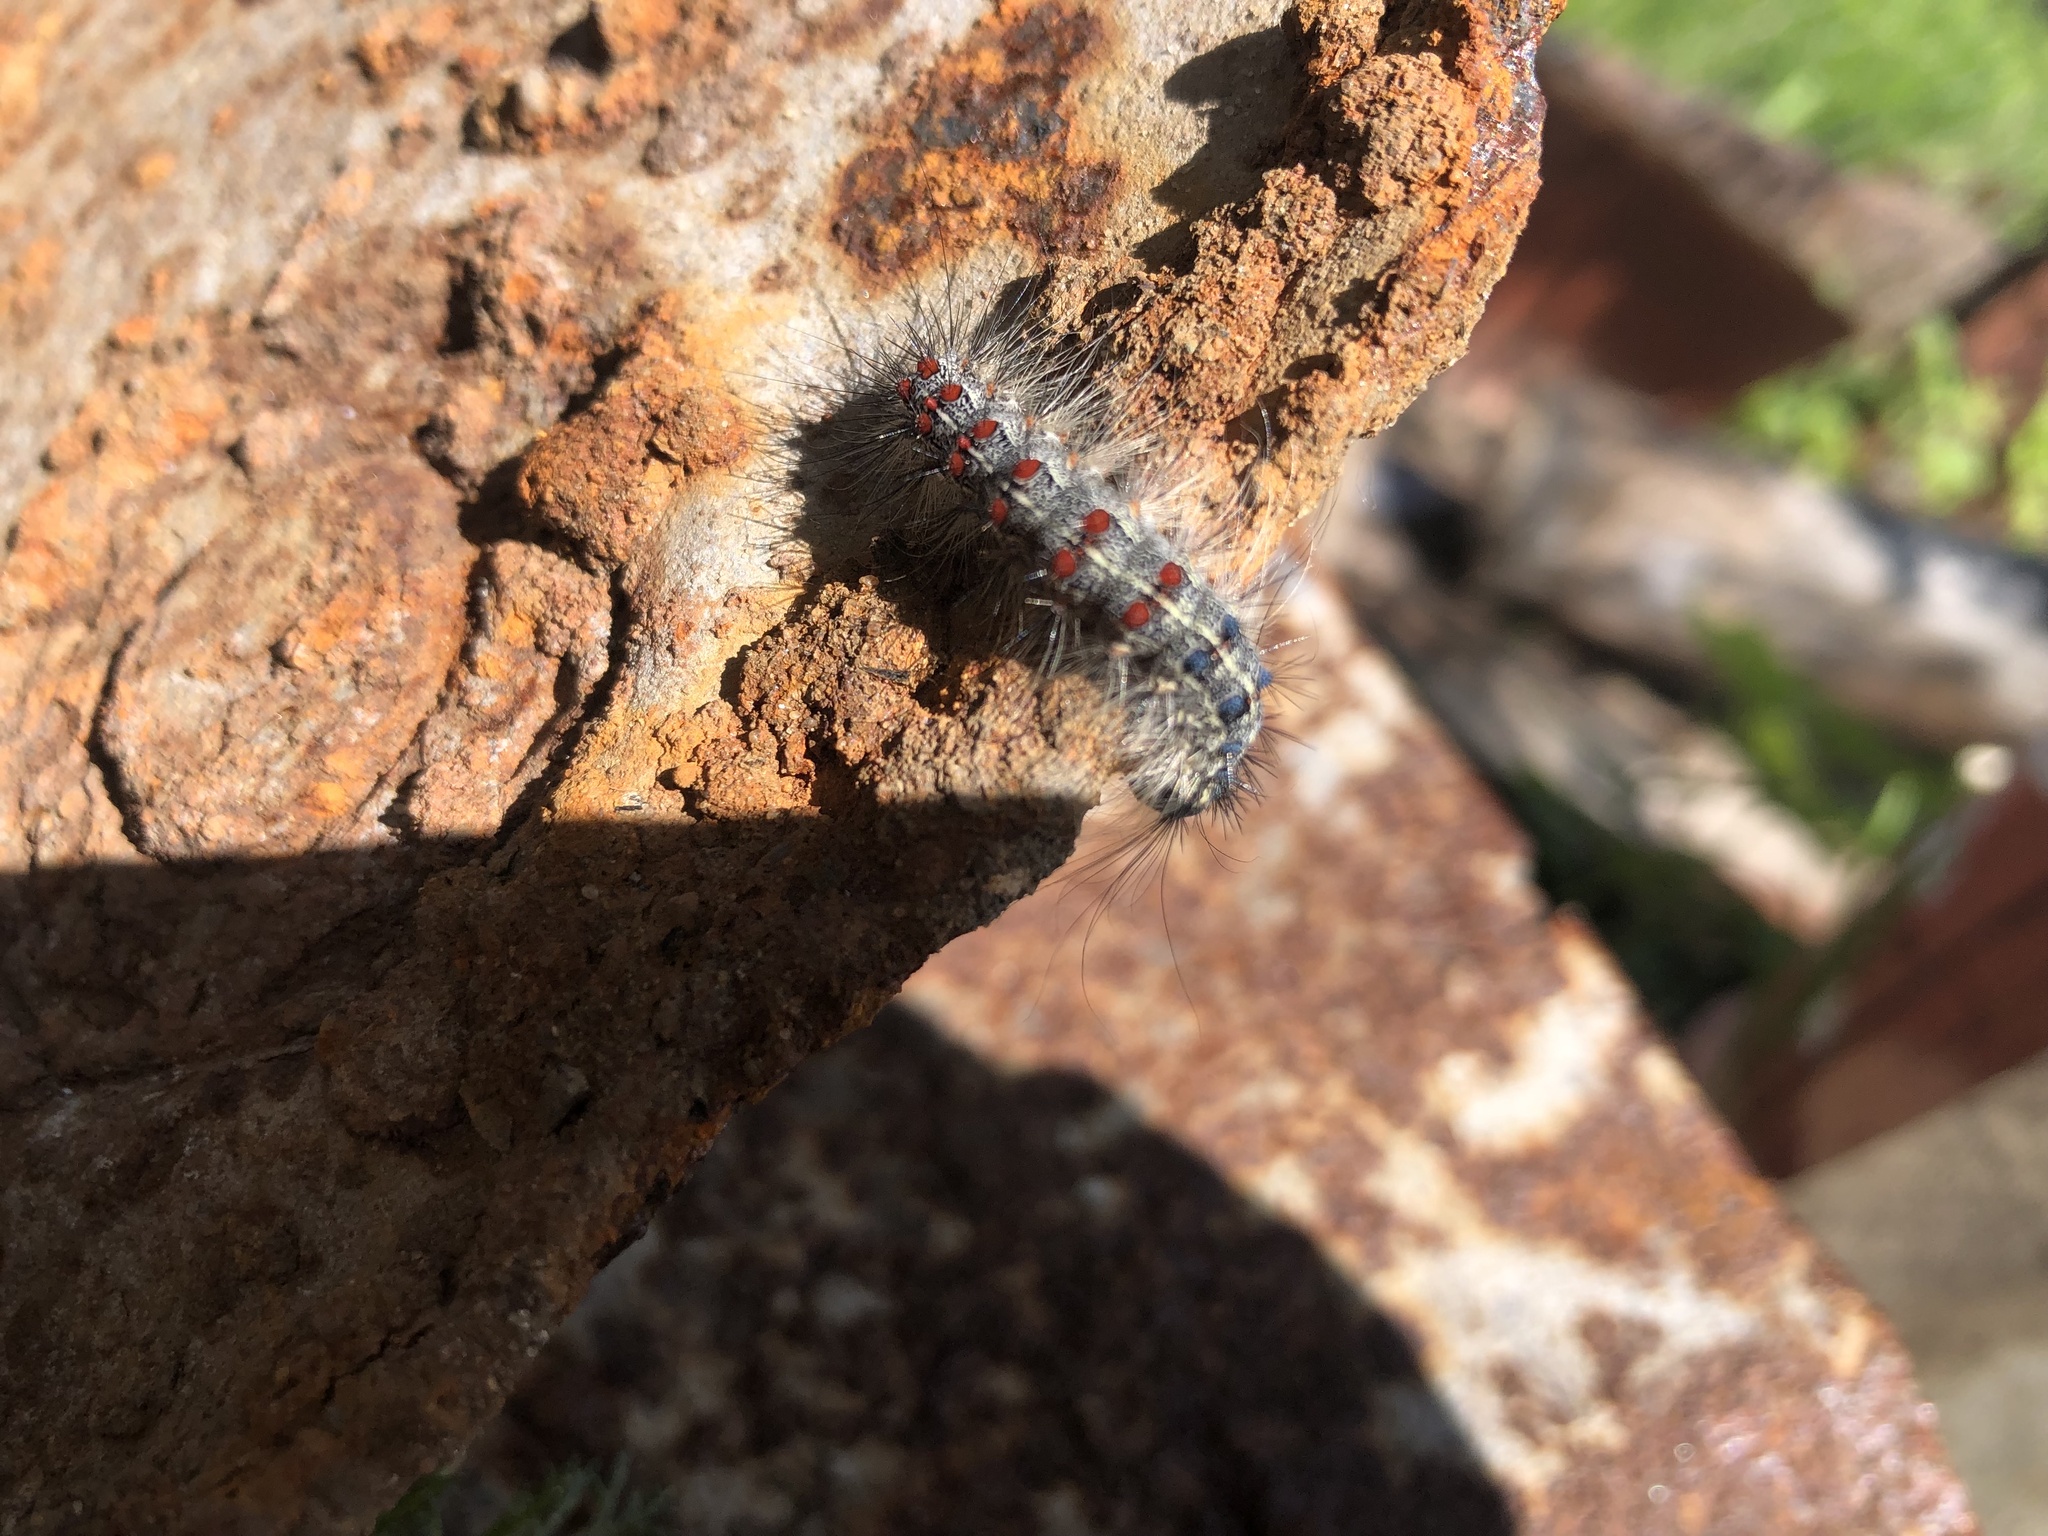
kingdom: Animalia
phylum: Arthropoda
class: Insecta
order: Lepidoptera
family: Erebidae
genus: Lymantria
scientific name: Lymantria dispar
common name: Gypsy moth
